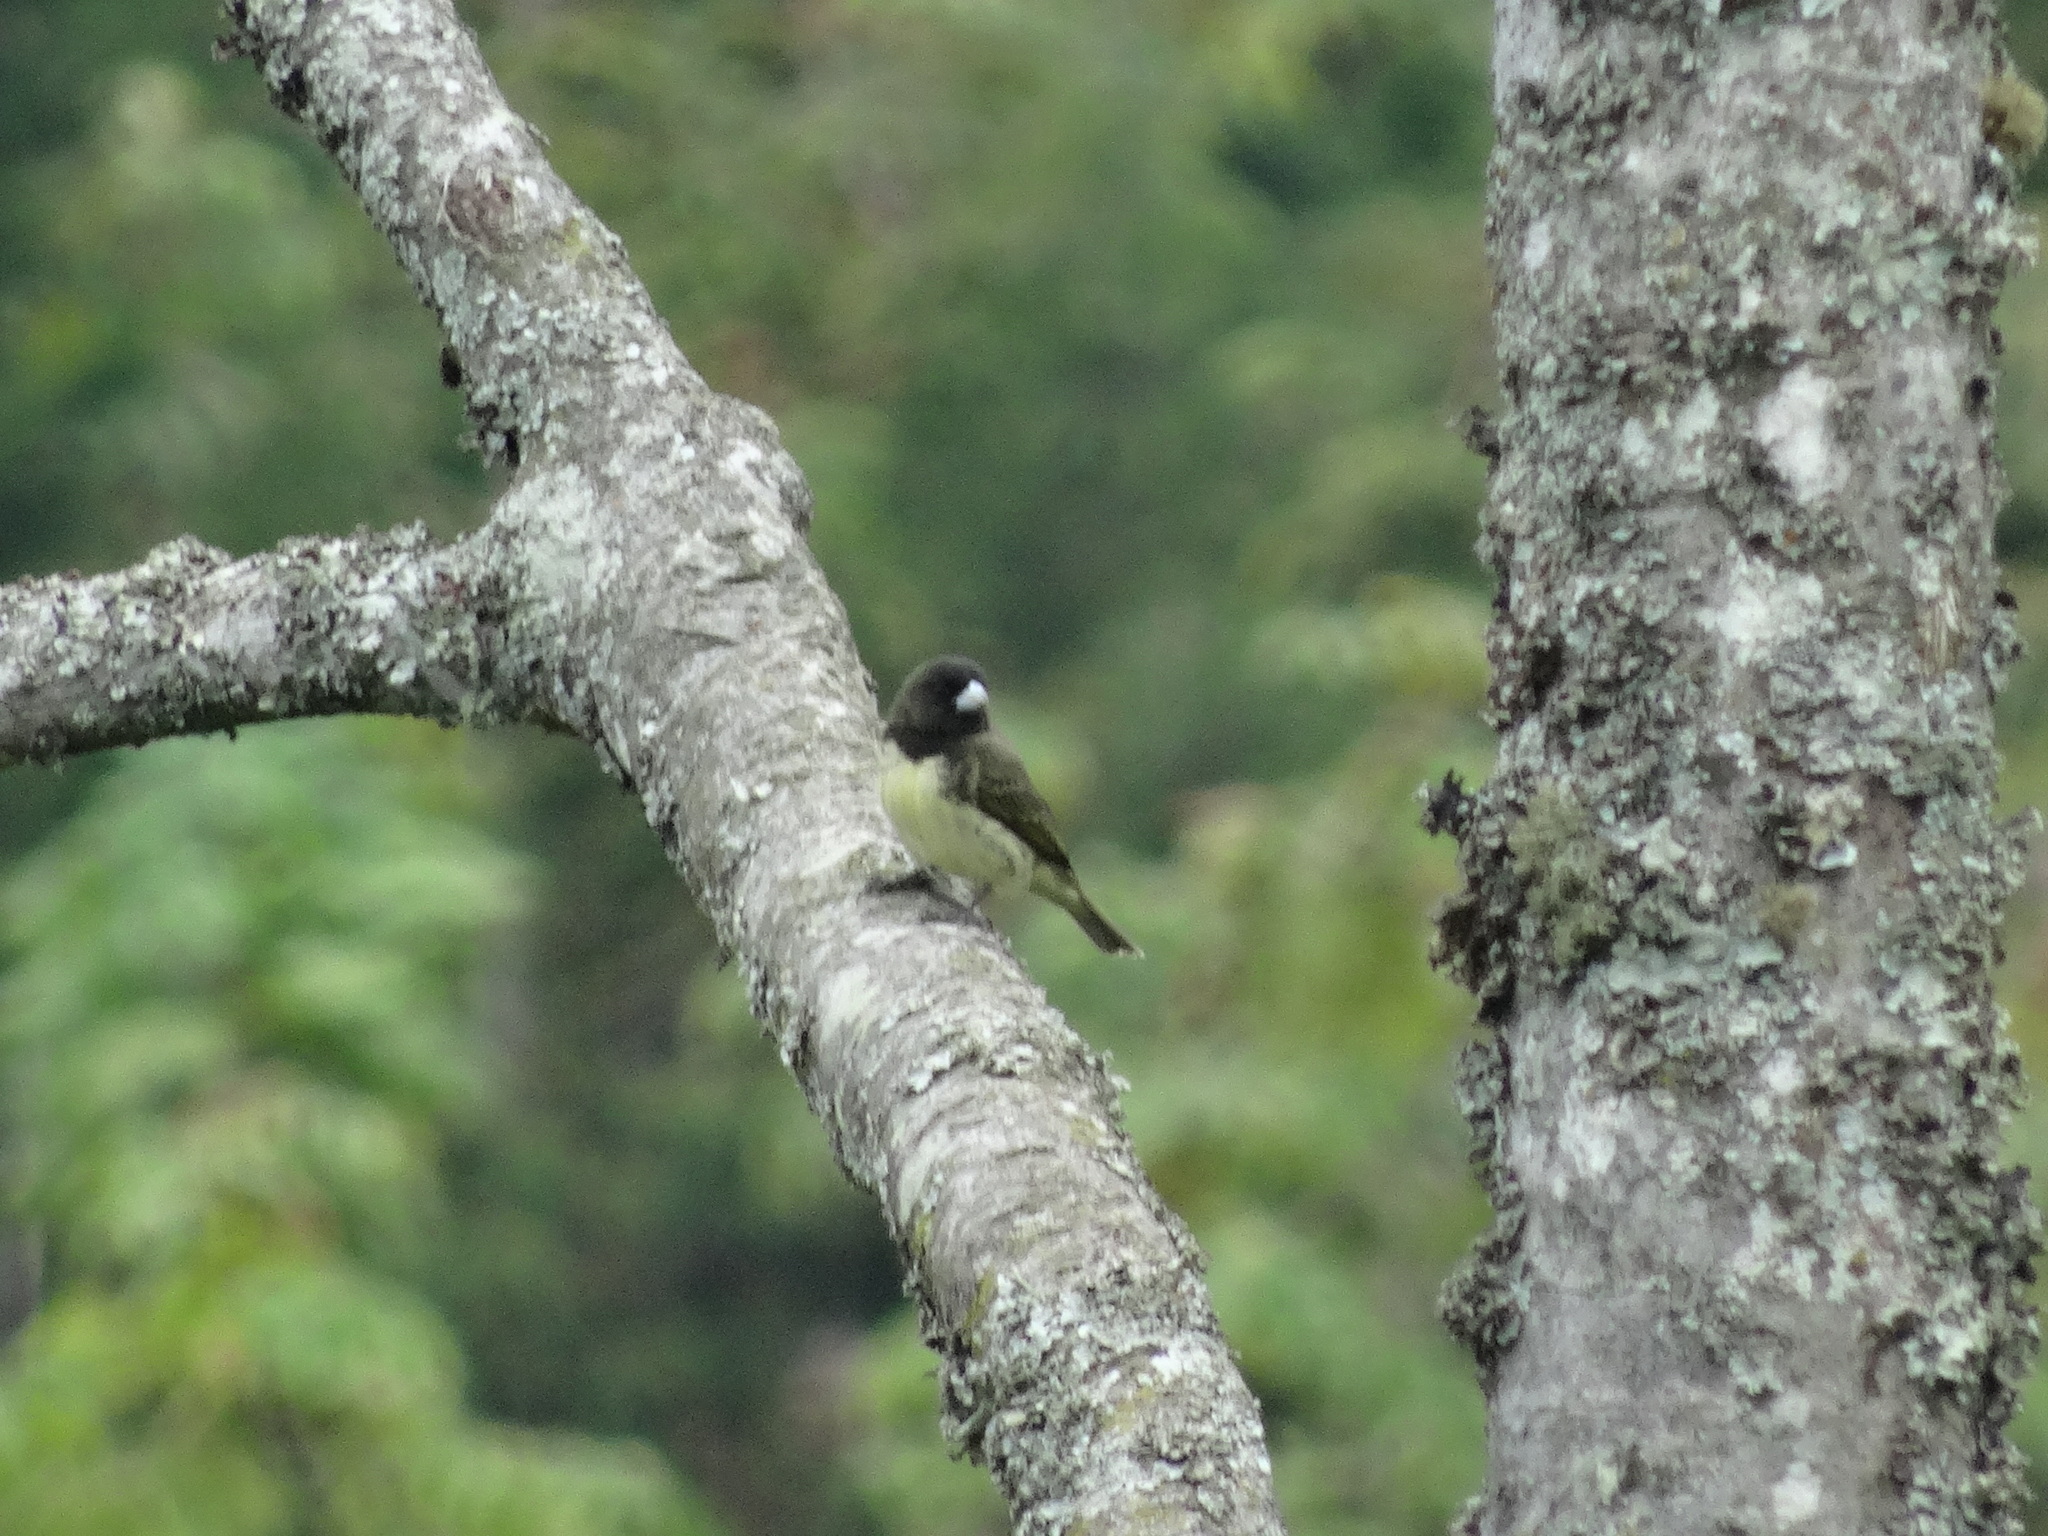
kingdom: Animalia
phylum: Chordata
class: Aves
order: Passeriformes
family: Thraupidae
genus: Sporophila
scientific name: Sporophila nigricollis
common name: Yellow-bellied seedeater
